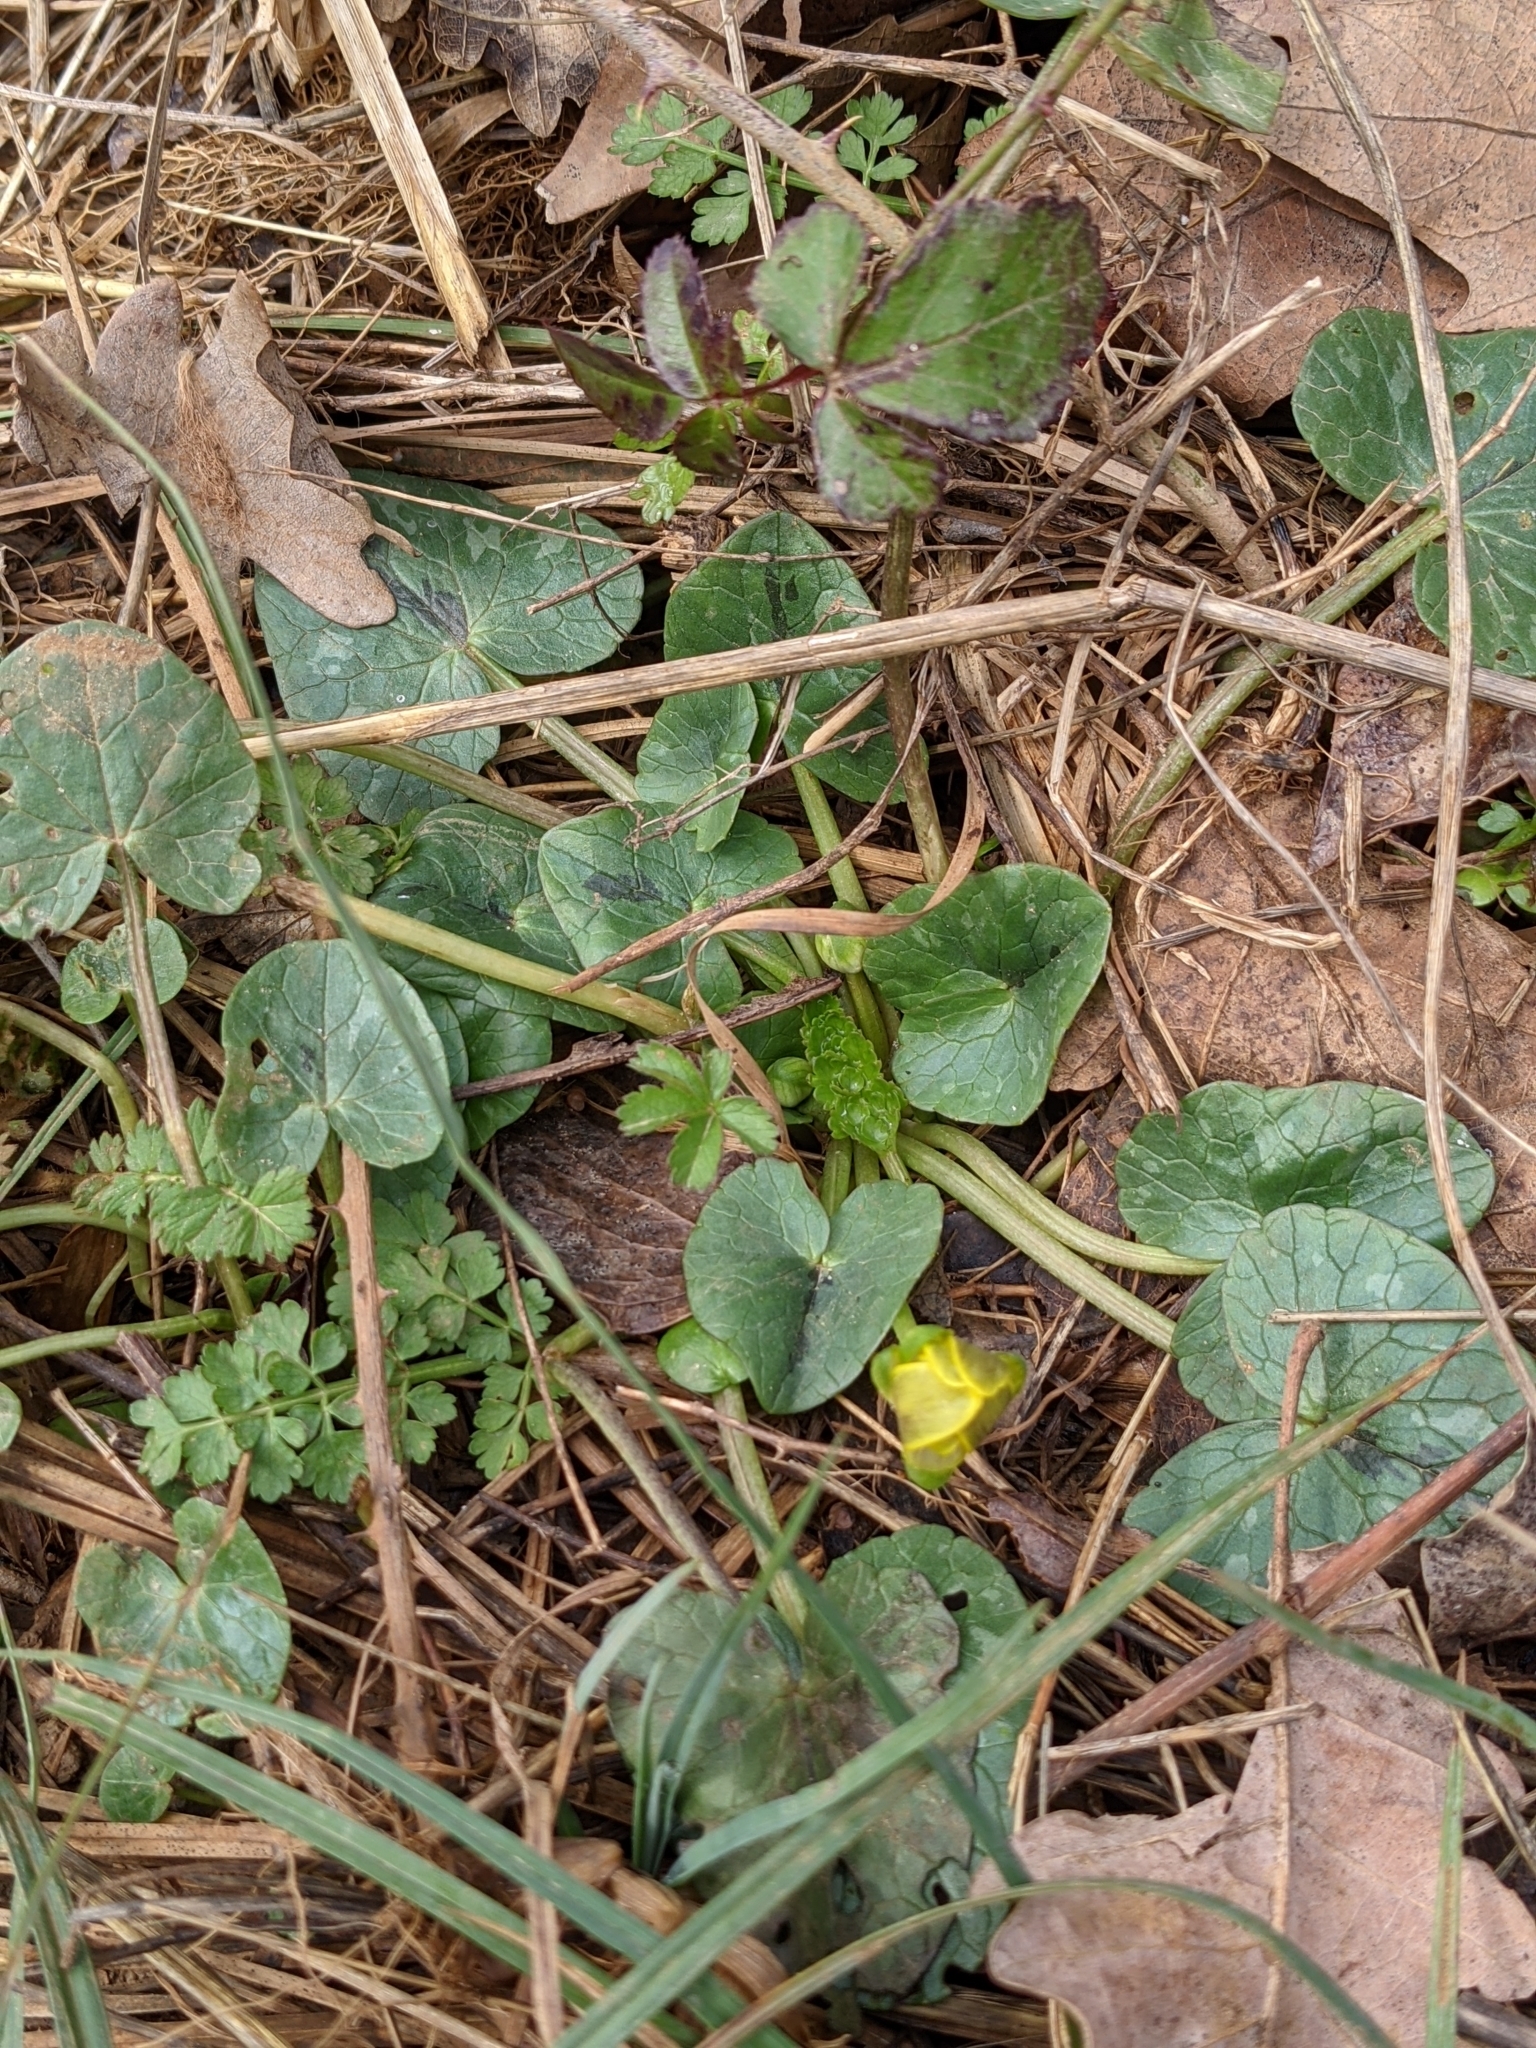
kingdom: Plantae
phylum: Tracheophyta
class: Magnoliopsida
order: Ranunculales
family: Ranunculaceae
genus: Ficaria
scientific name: Ficaria verna
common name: Lesser celandine
